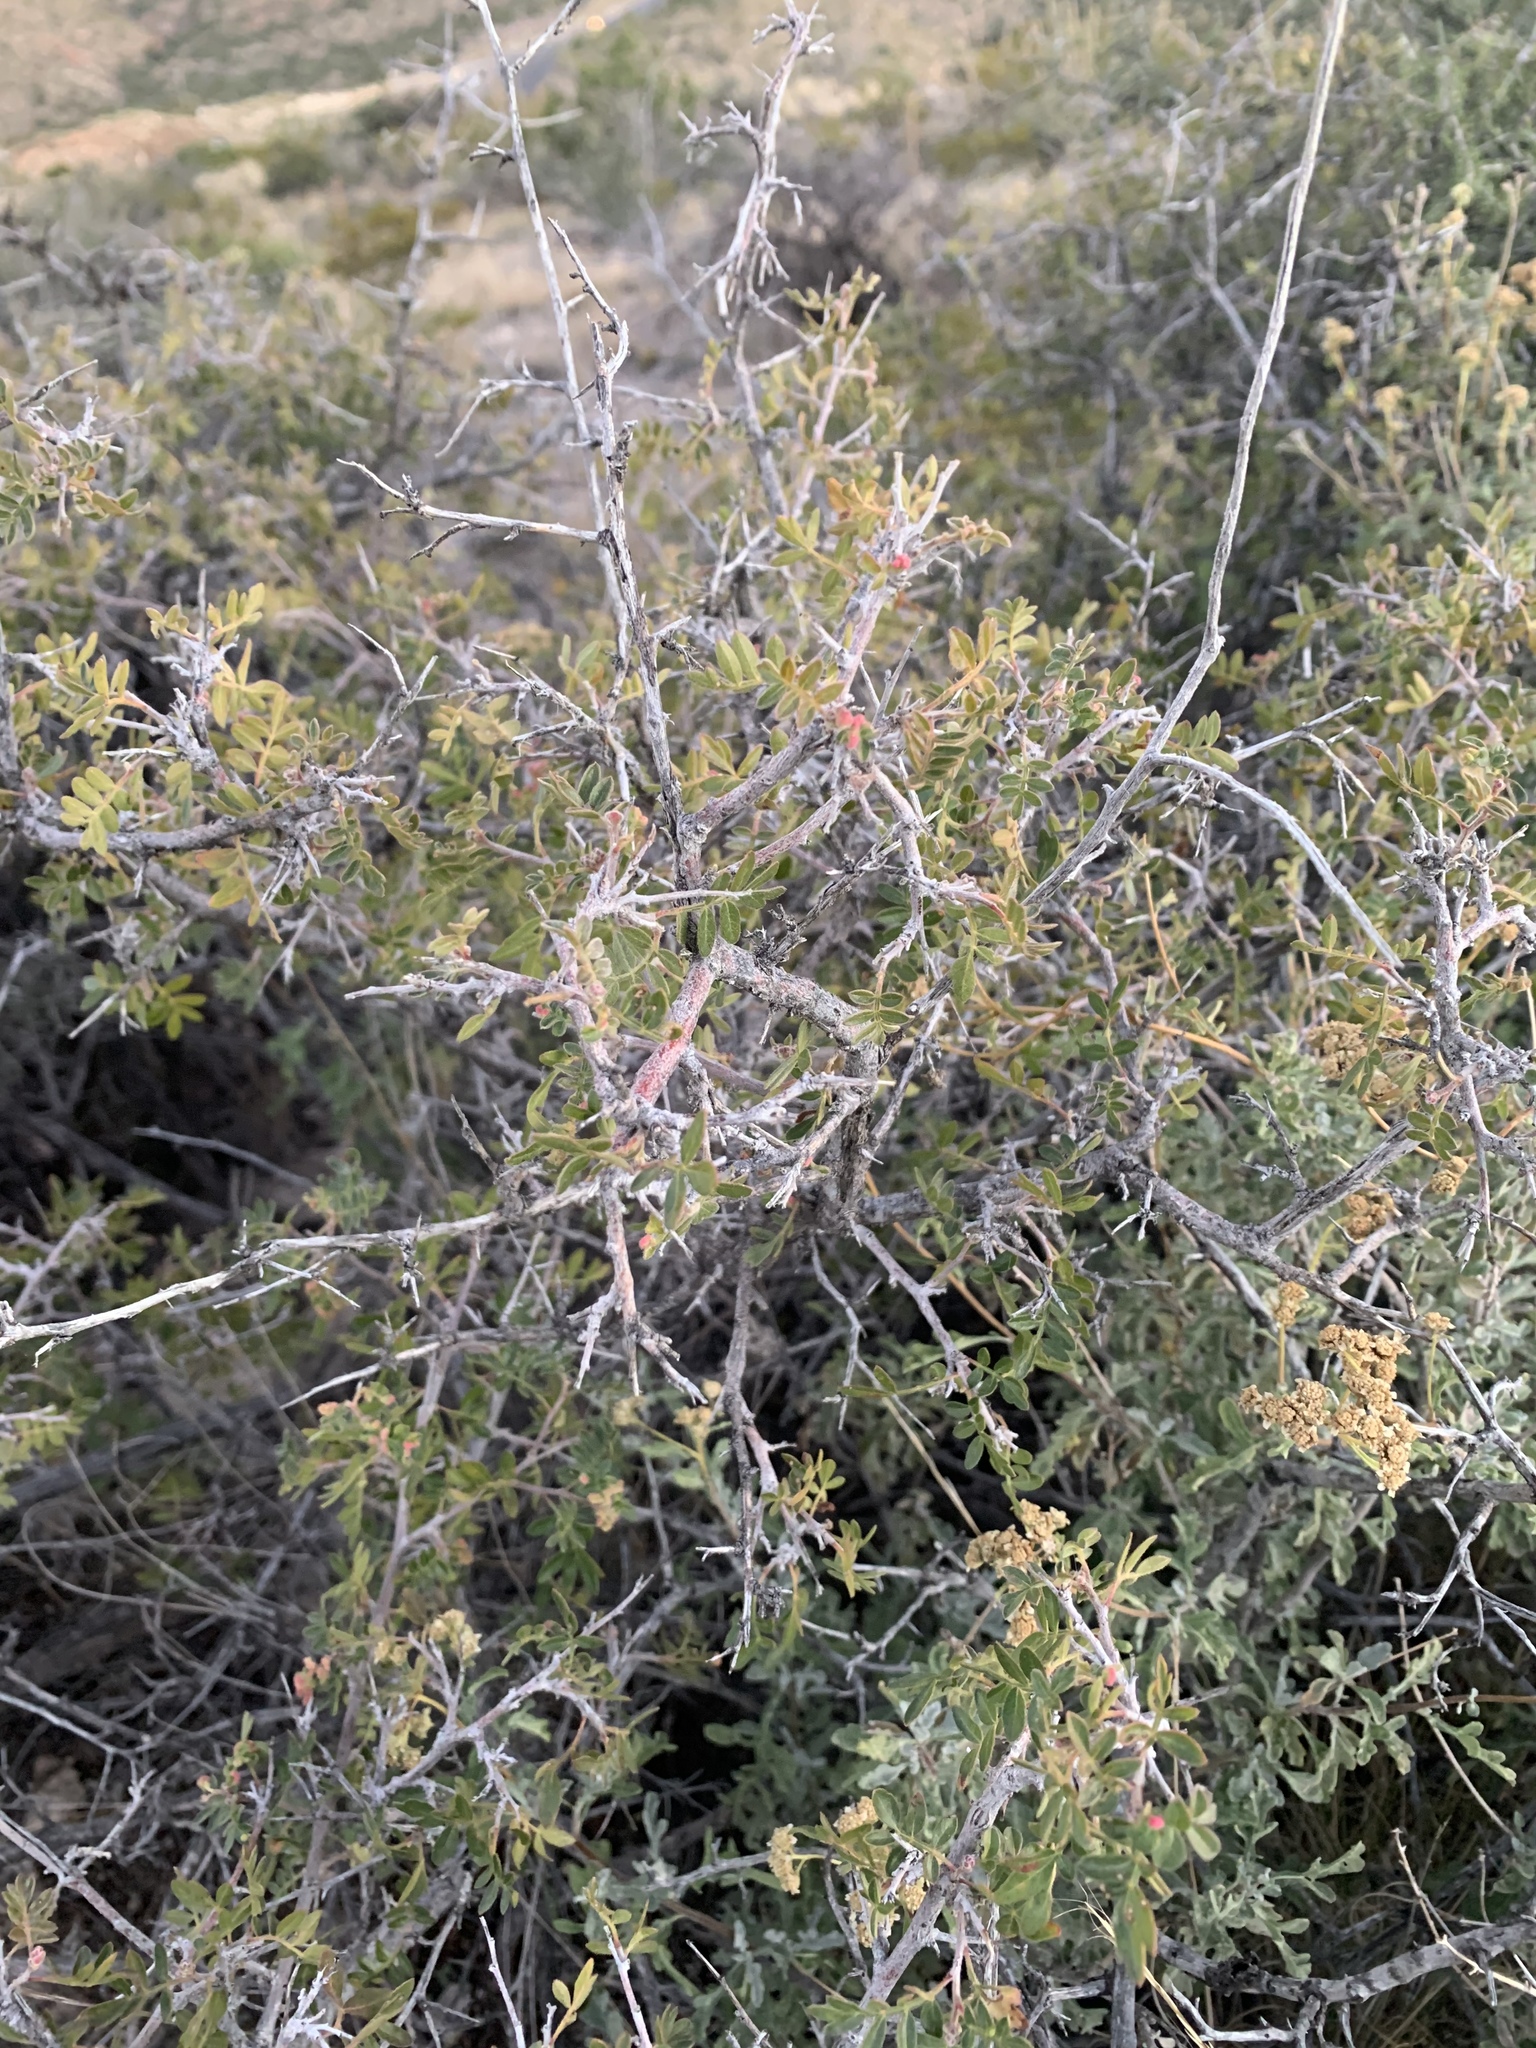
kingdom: Plantae
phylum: Tracheophyta
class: Magnoliopsida
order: Sapindales
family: Anacardiaceae
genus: Rhus
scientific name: Rhus microphylla
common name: Desert sumac
